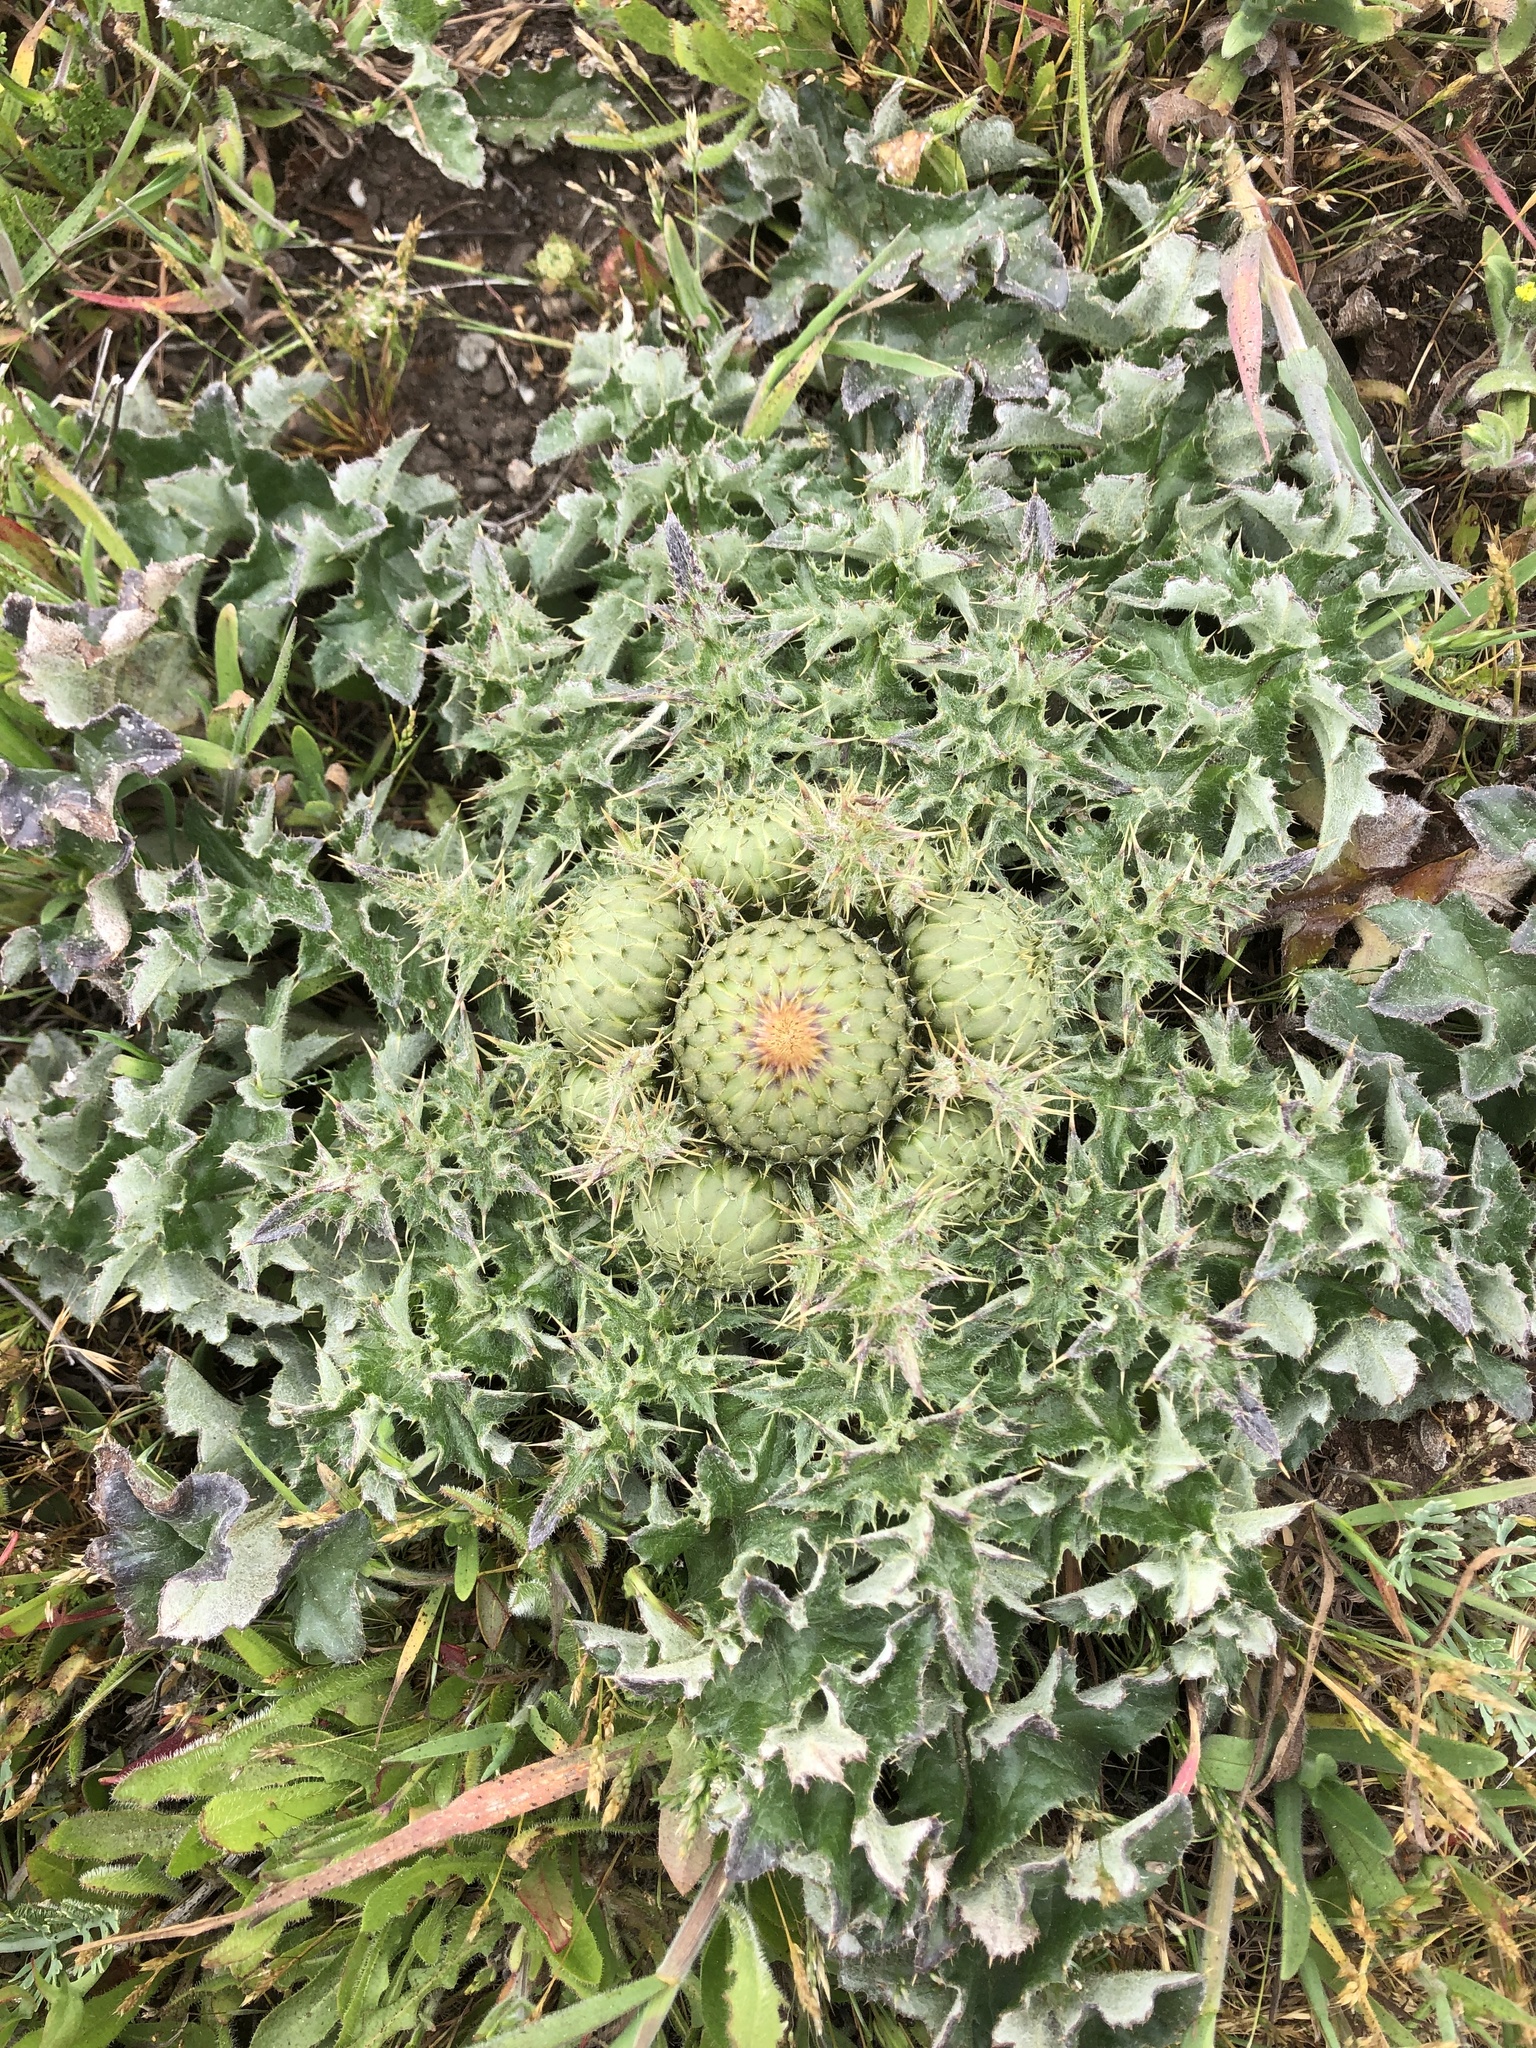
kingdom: Plantae
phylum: Tracheophyta
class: Magnoliopsida
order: Asterales
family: Asteraceae
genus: Cirsium
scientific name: Cirsium quercetorum
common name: Alameda county thistle
